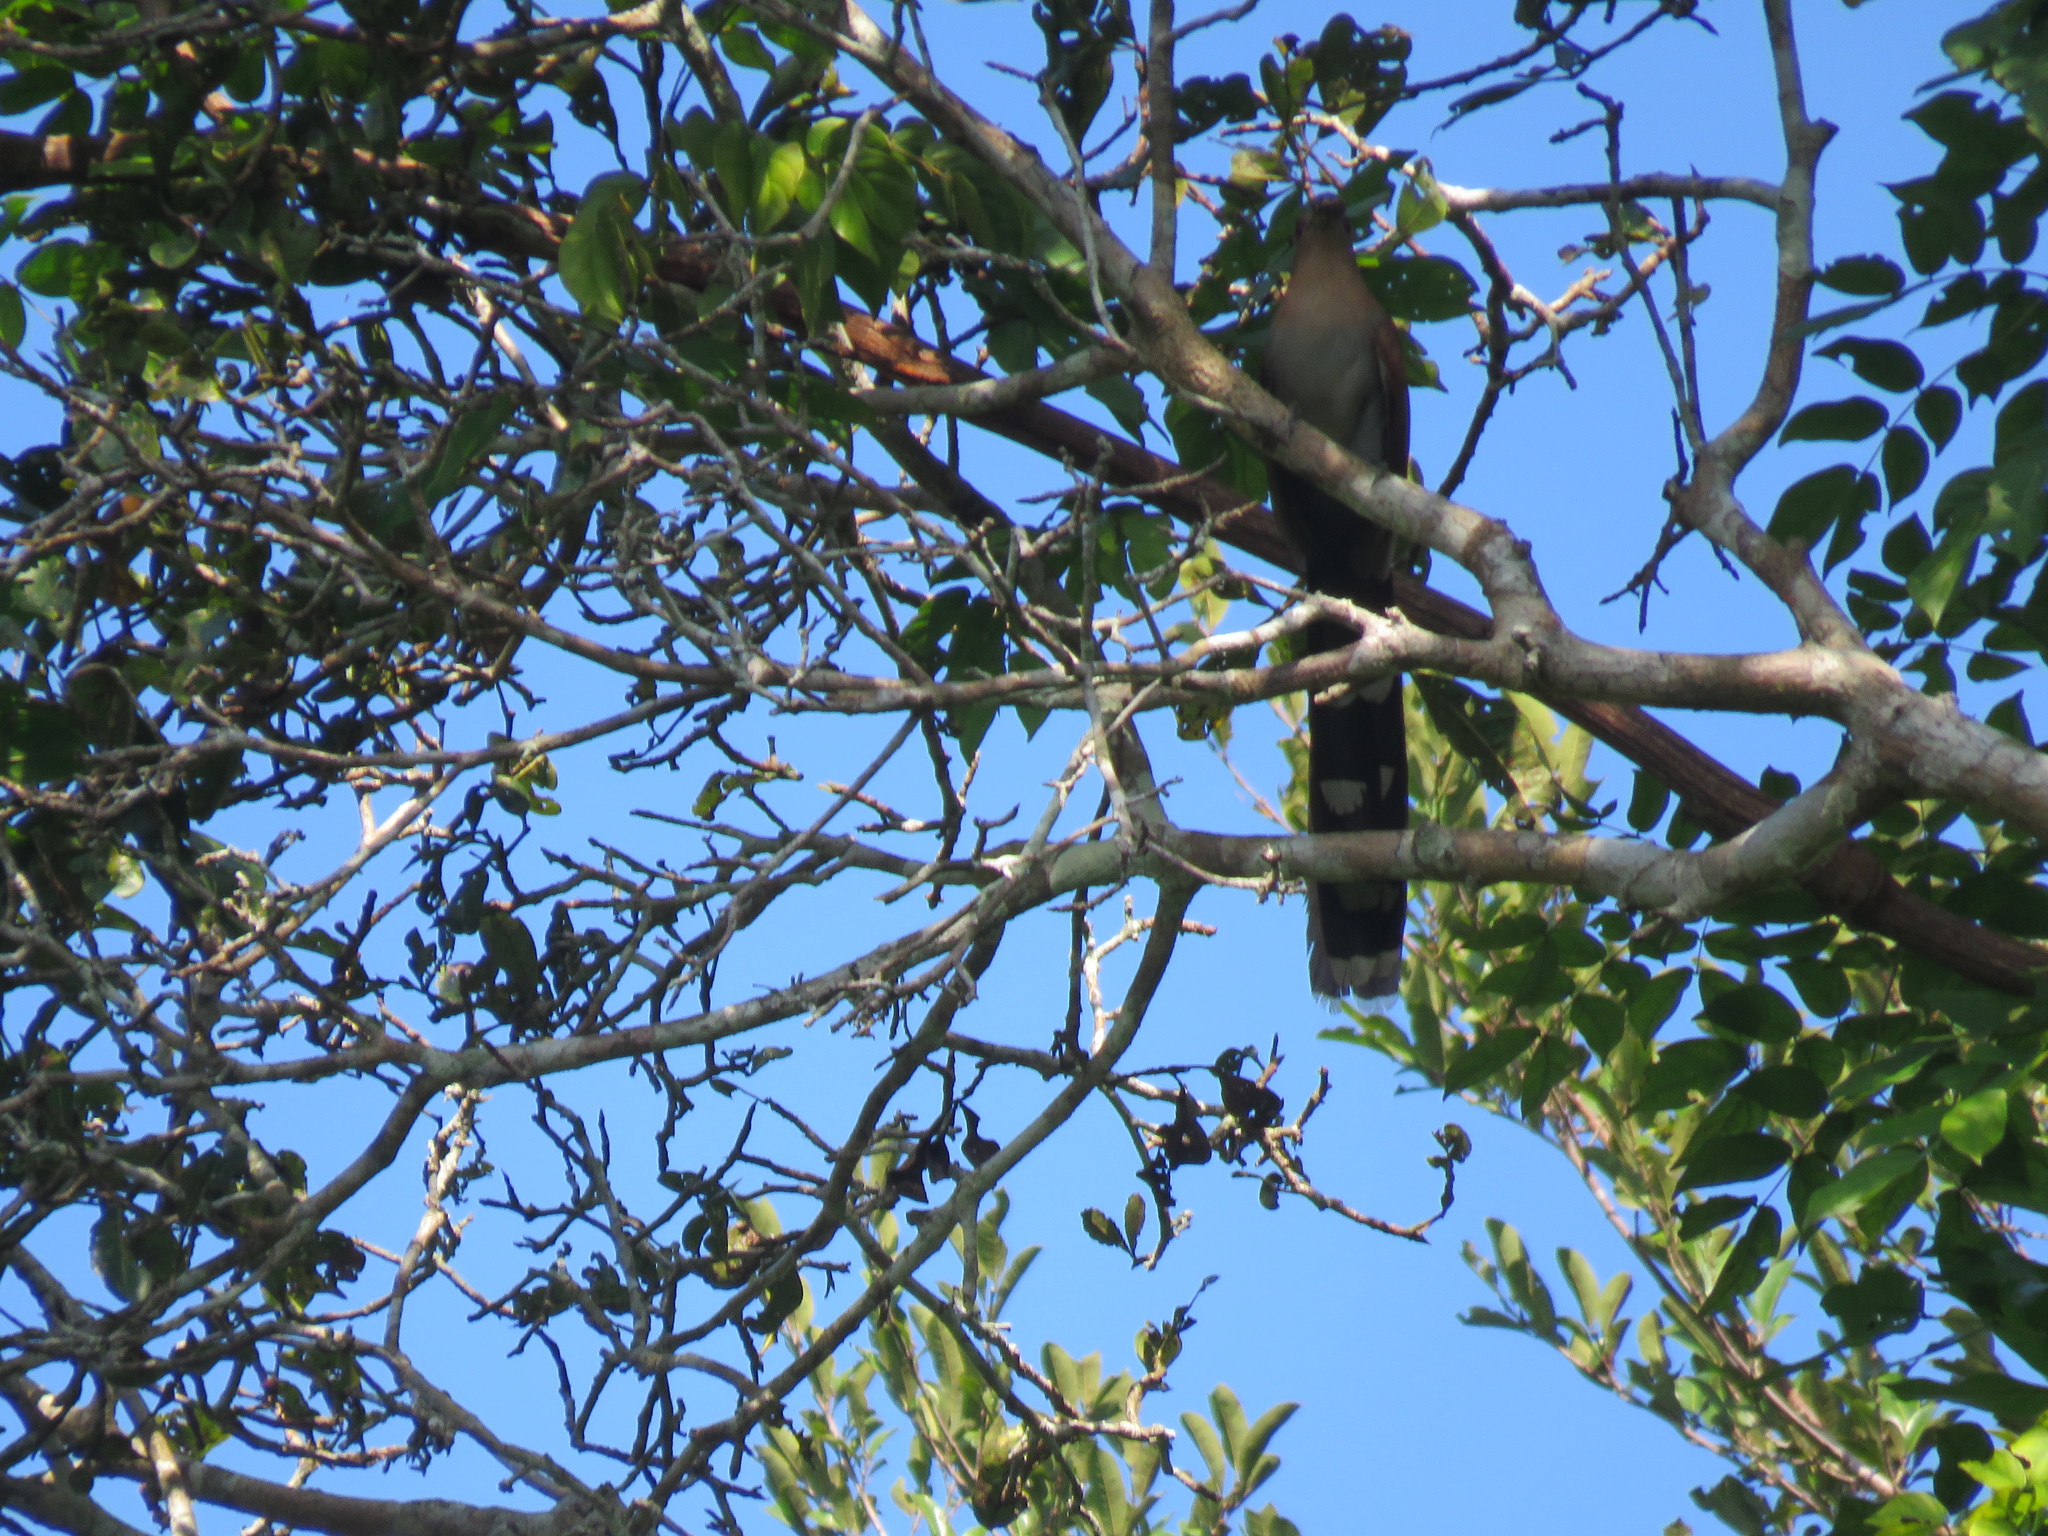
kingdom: Animalia
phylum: Chordata
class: Aves
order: Cuculiformes
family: Cuculidae
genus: Piaya
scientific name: Piaya cayana
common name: Squirrel cuckoo
